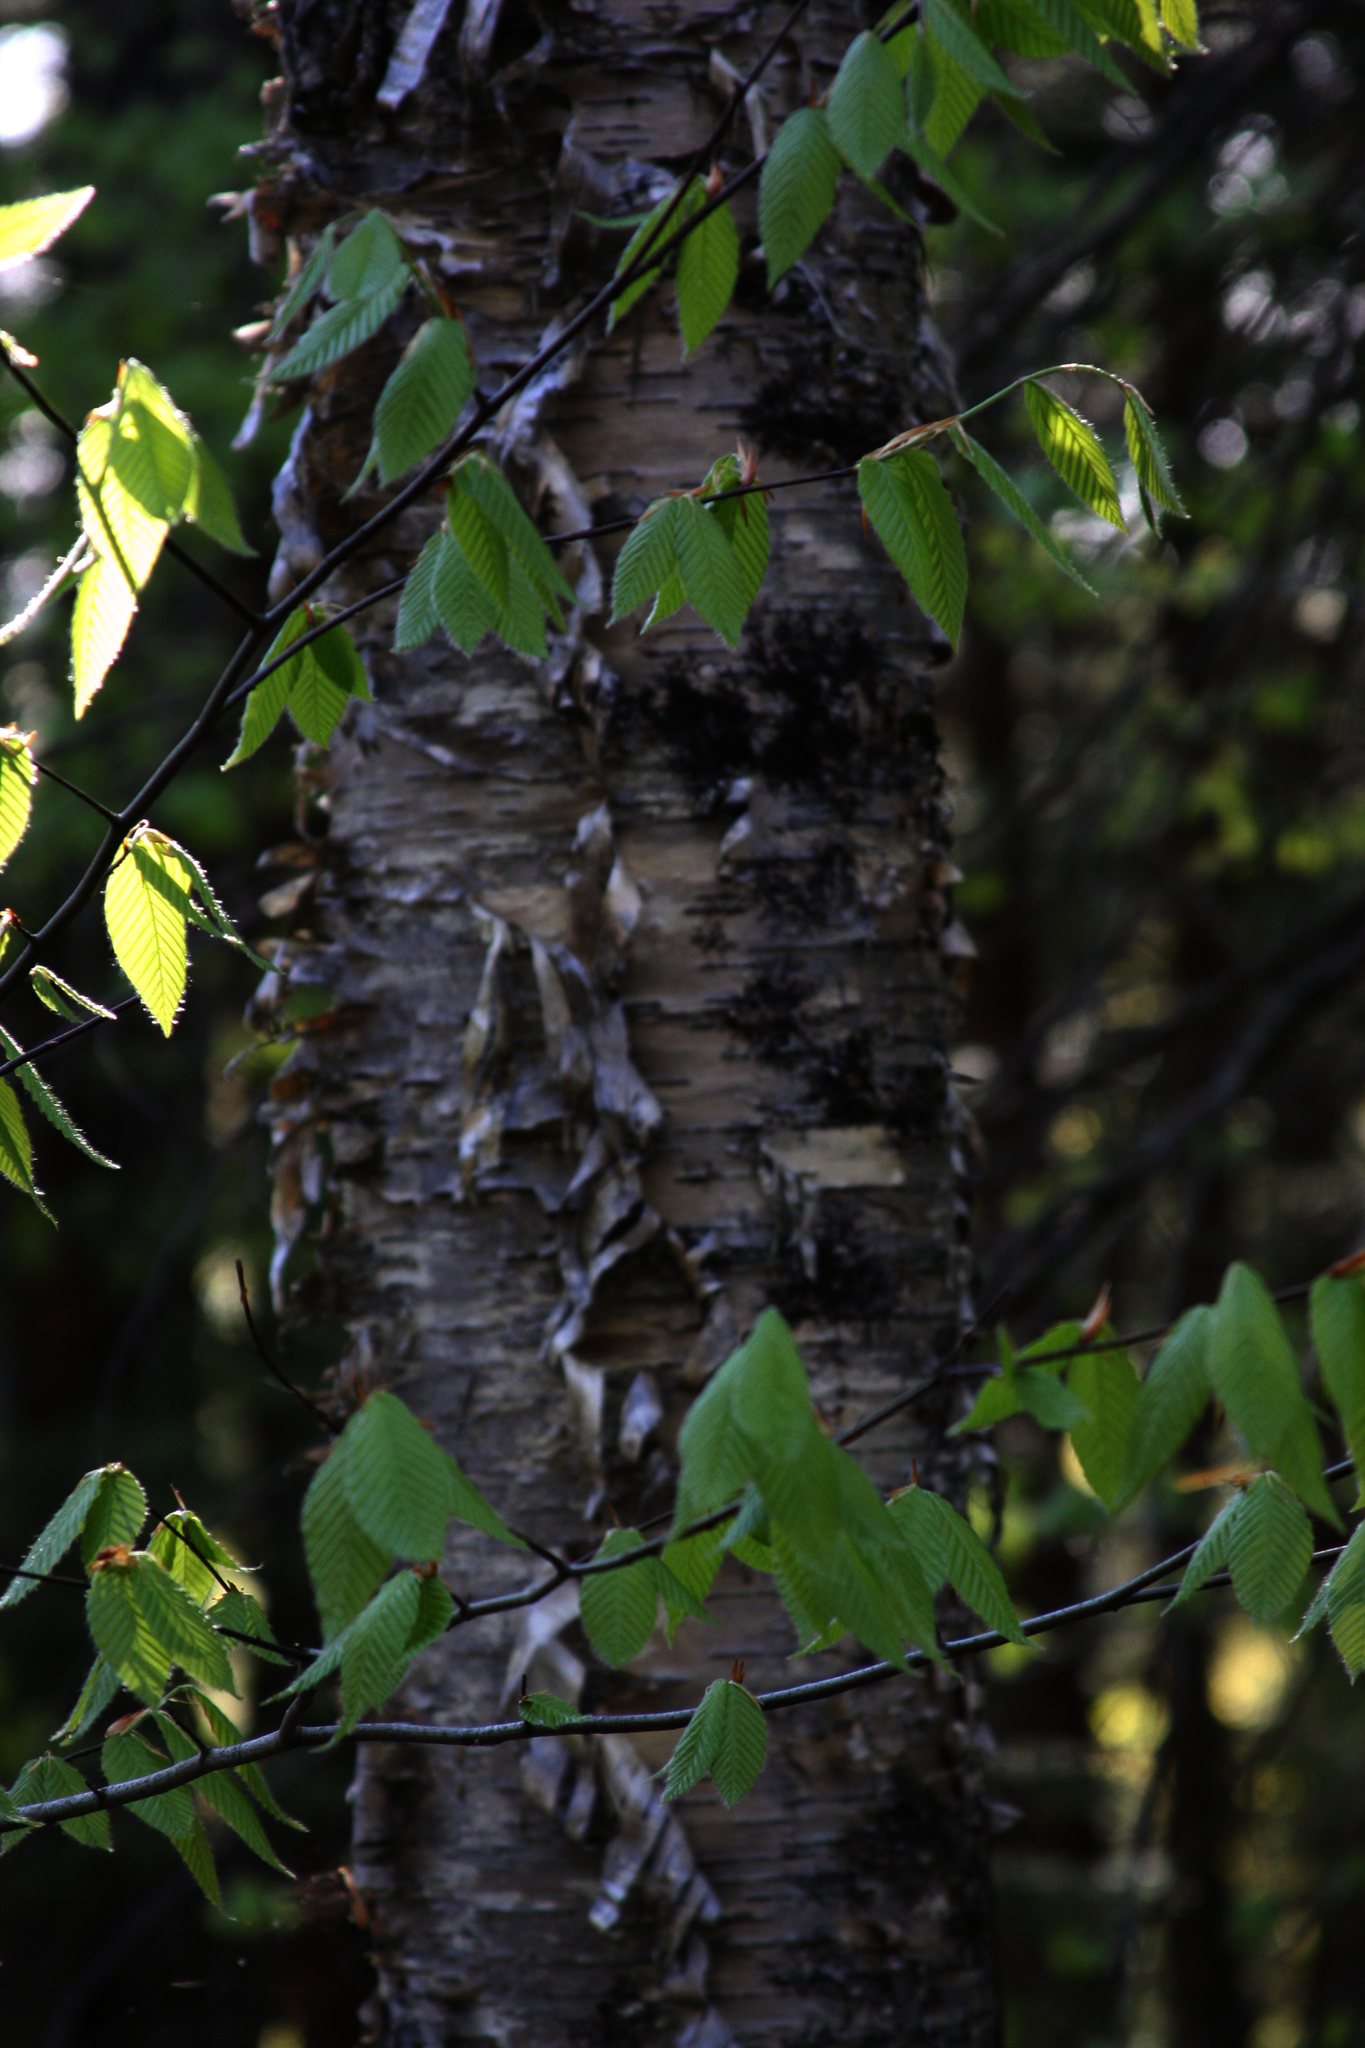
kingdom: Plantae
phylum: Tracheophyta
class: Magnoliopsida
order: Fagales
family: Betulaceae
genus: Betula
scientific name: Betula alleghaniensis
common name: Yellow birch
